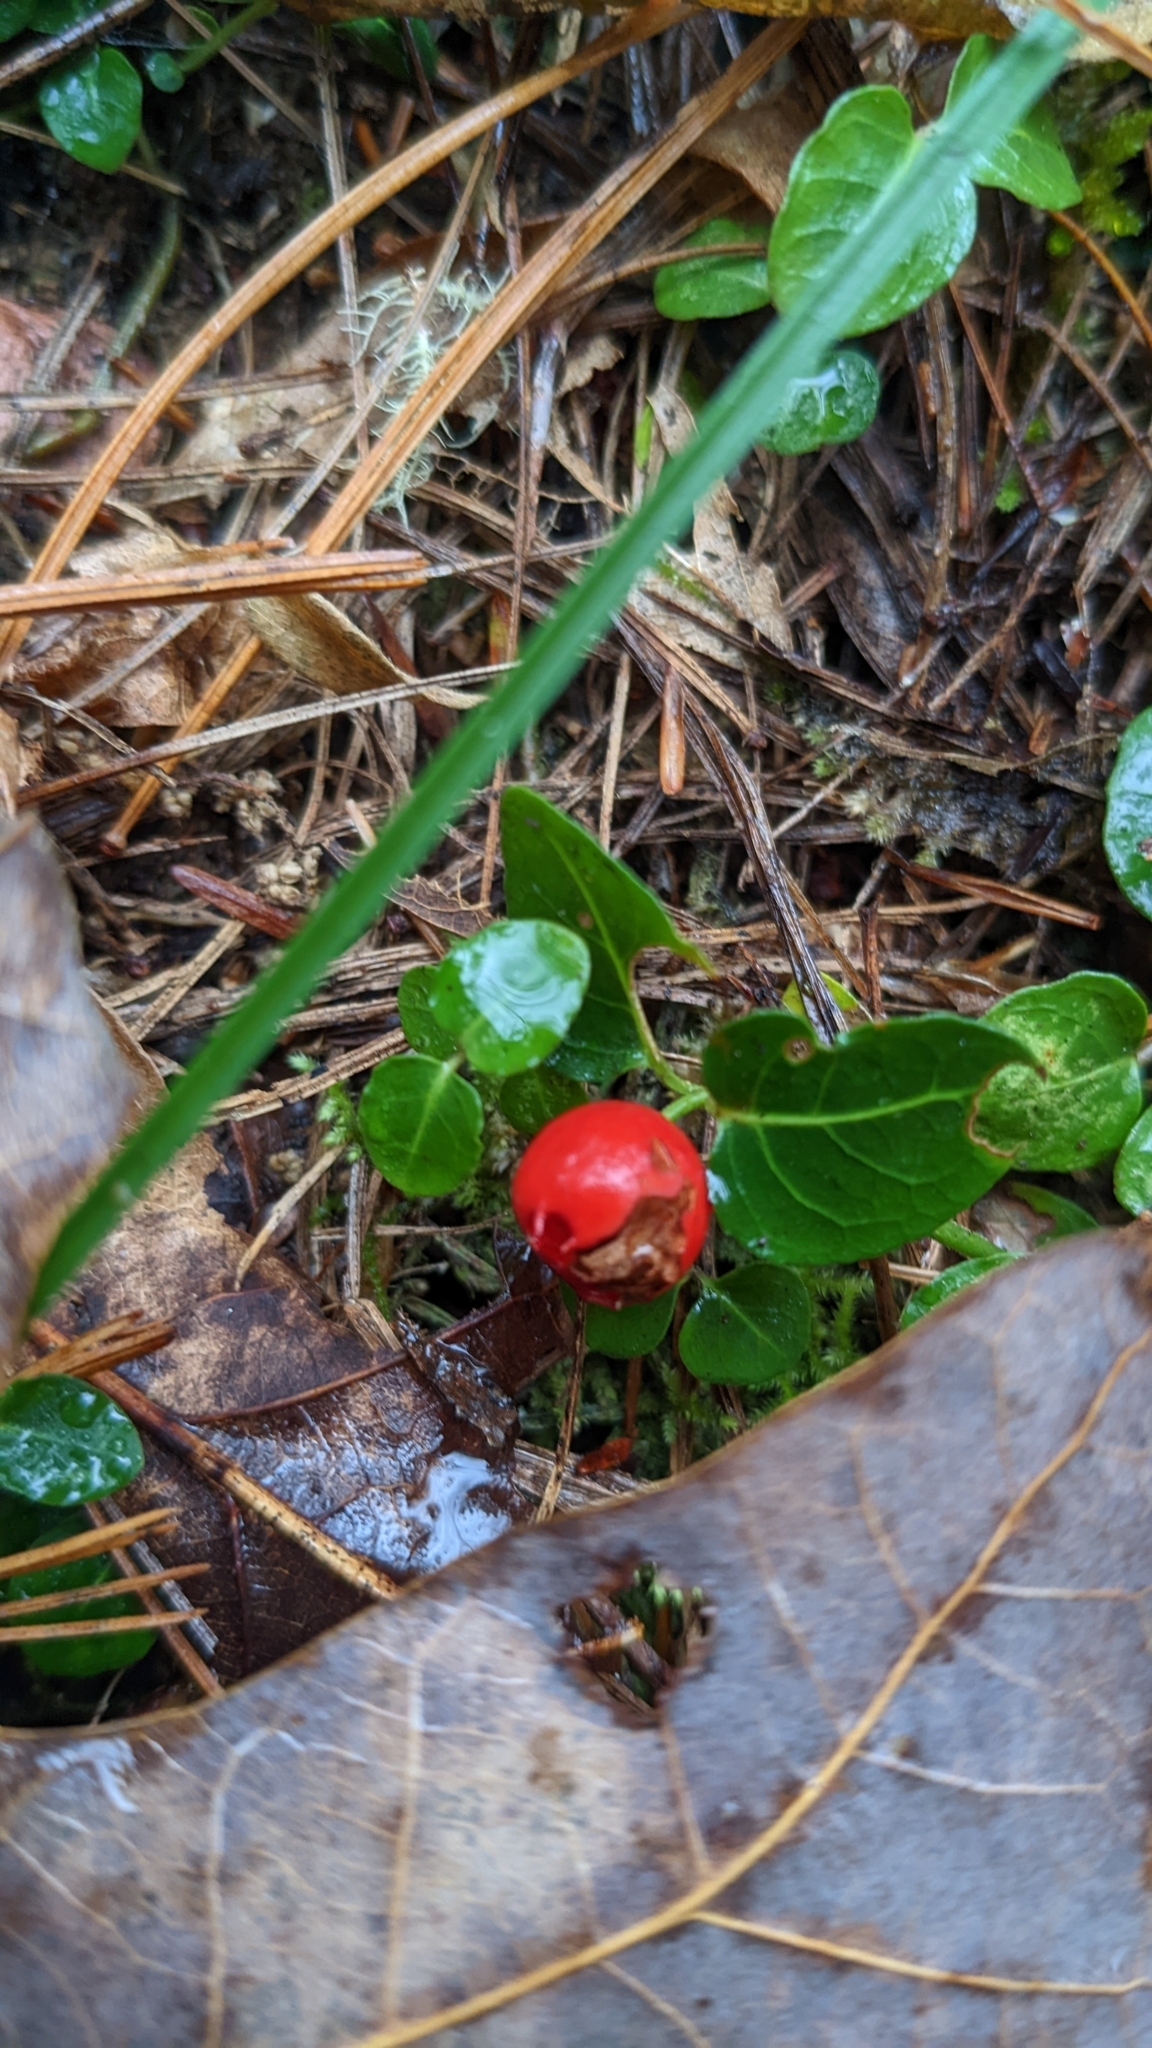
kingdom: Plantae
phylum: Tracheophyta
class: Magnoliopsida
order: Gentianales
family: Rubiaceae
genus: Mitchella
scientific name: Mitchella repens
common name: Partridge-berry
